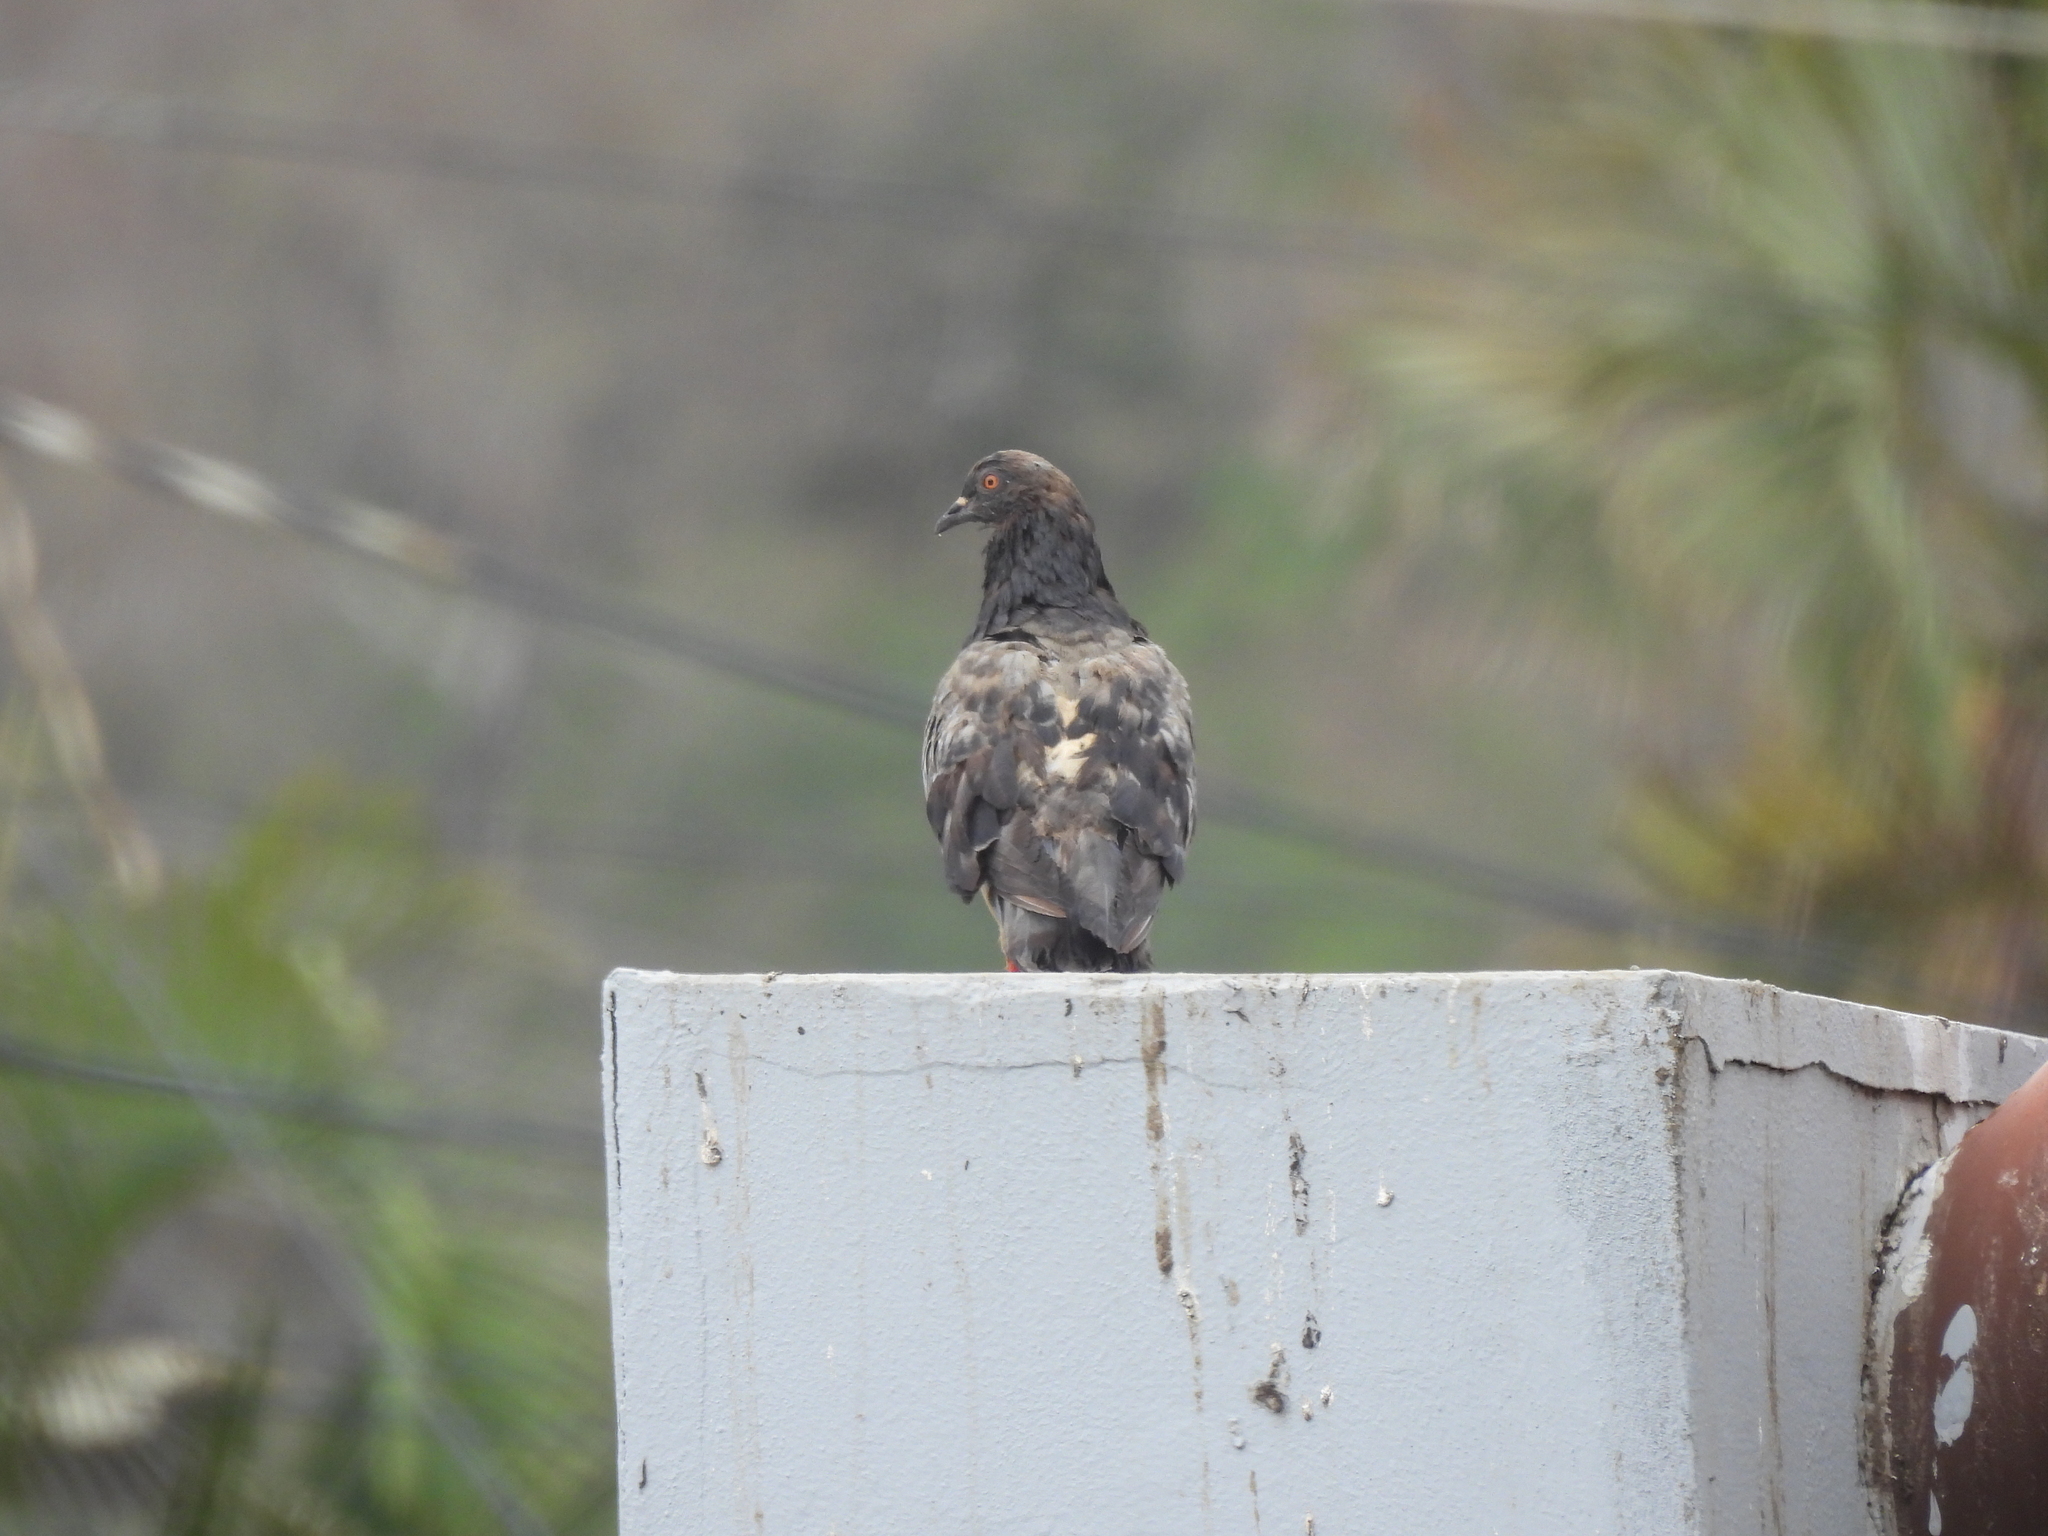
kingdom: Animalia
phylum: Chordata
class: Aves
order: Columbiformes
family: Columbidae
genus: Columba
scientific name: Columba livia
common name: Rock pigeon
